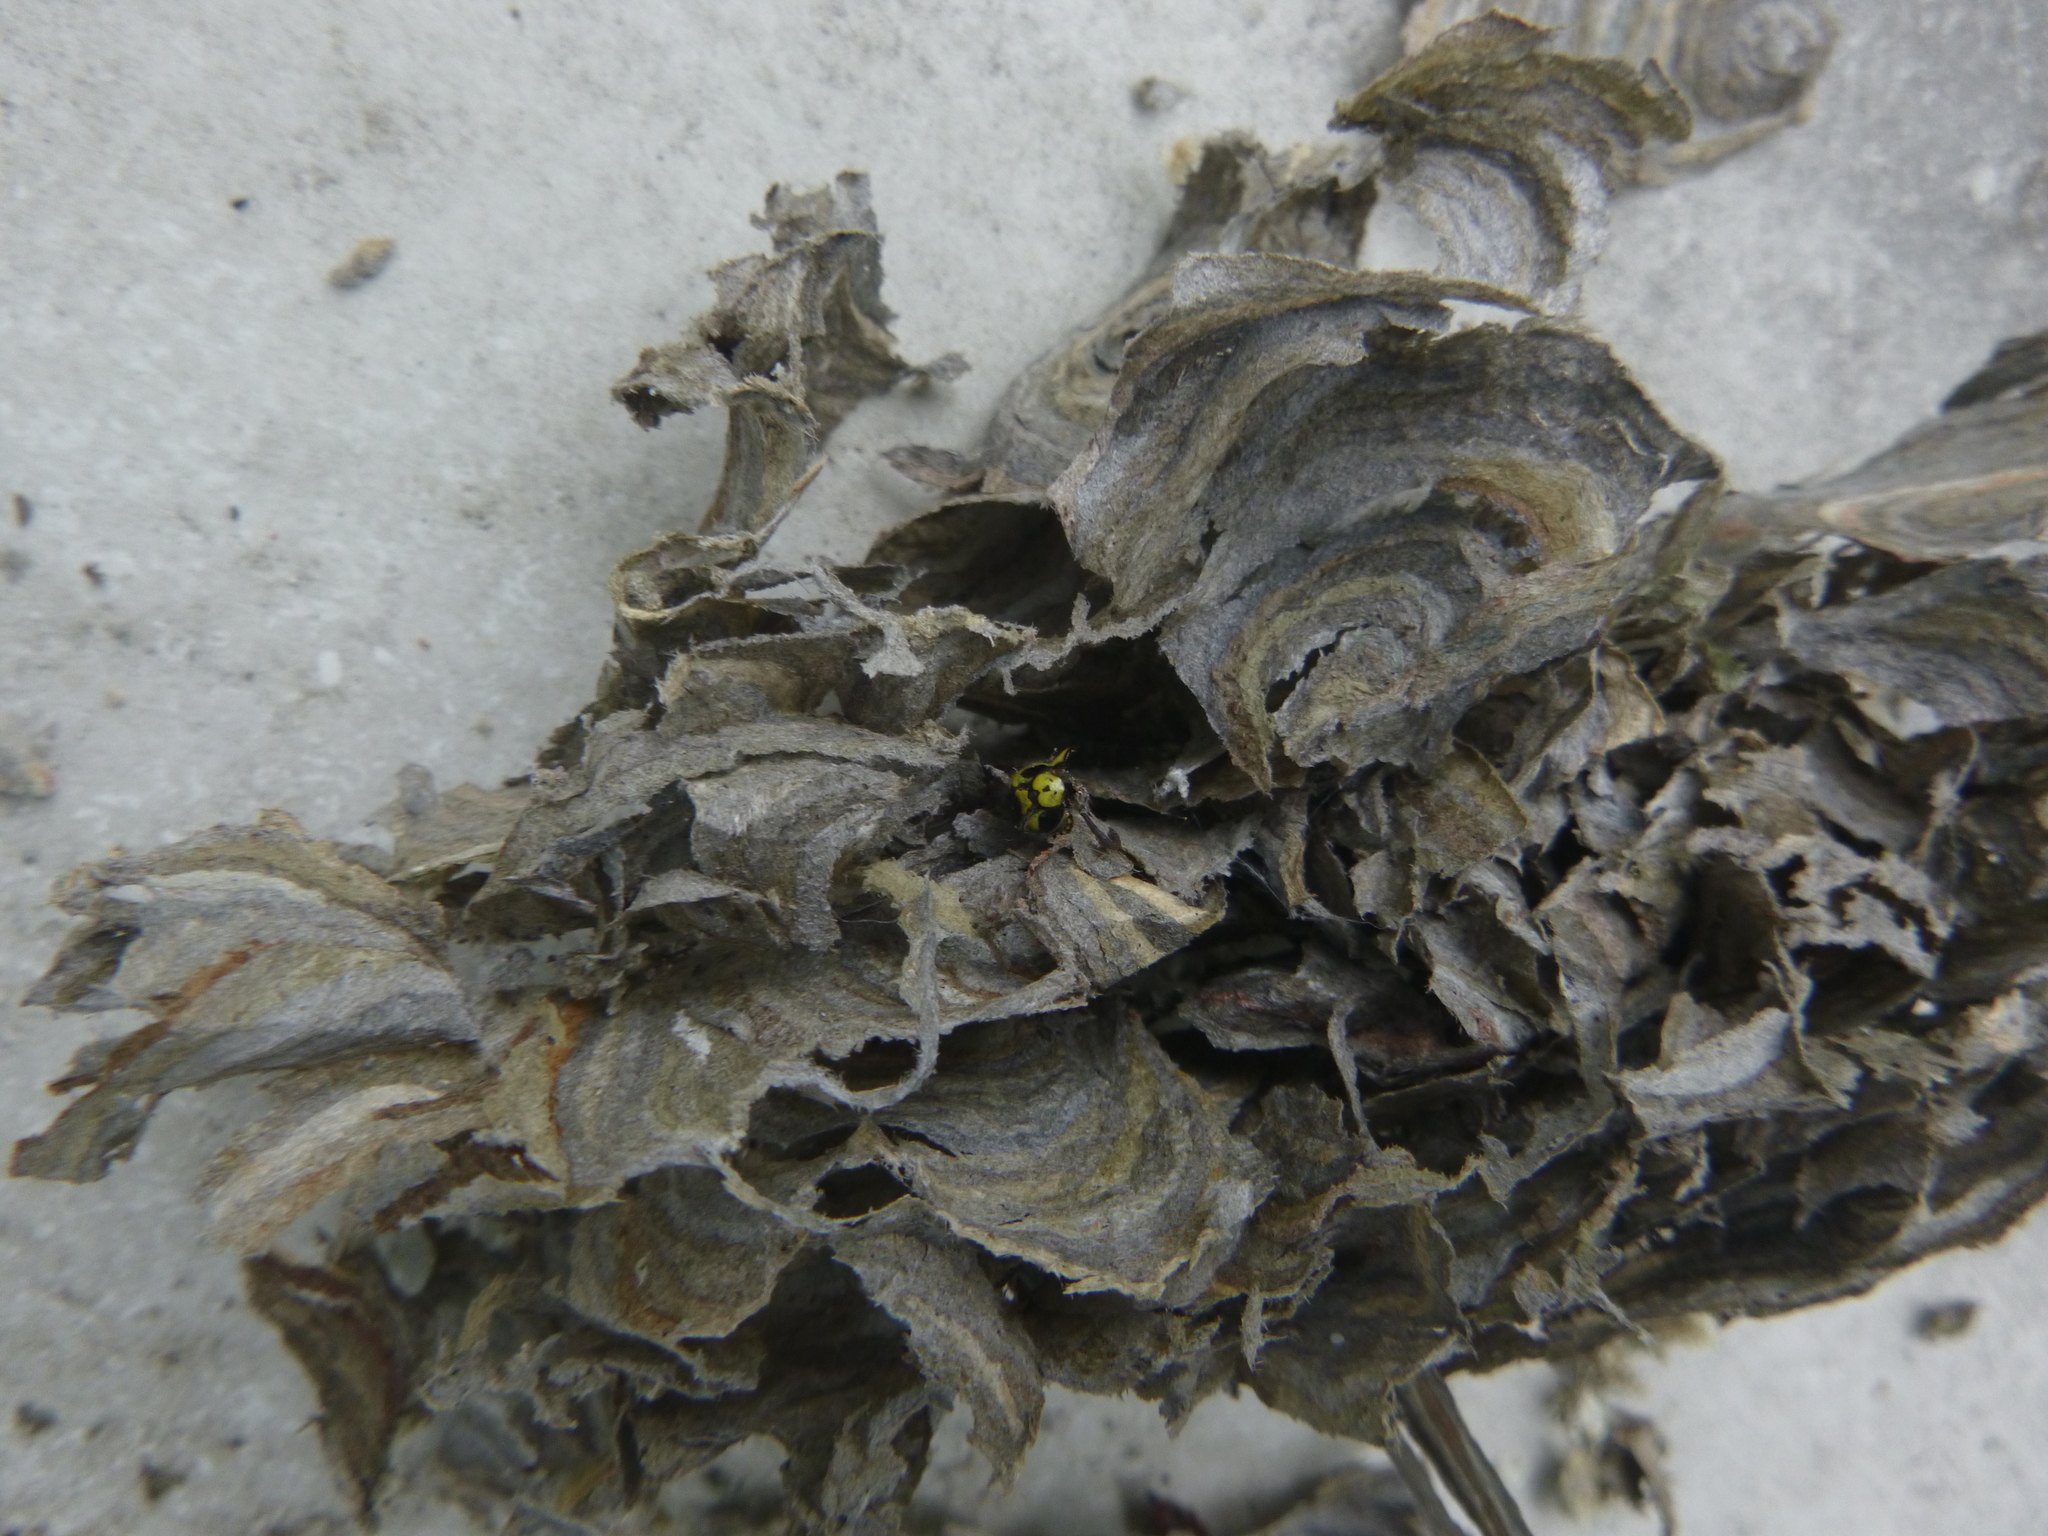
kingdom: Animalia
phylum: Arthropoda
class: Insecta
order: Hymenoptera
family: Vespidae
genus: Vespula
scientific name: Vespula germanica
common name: German wasp
